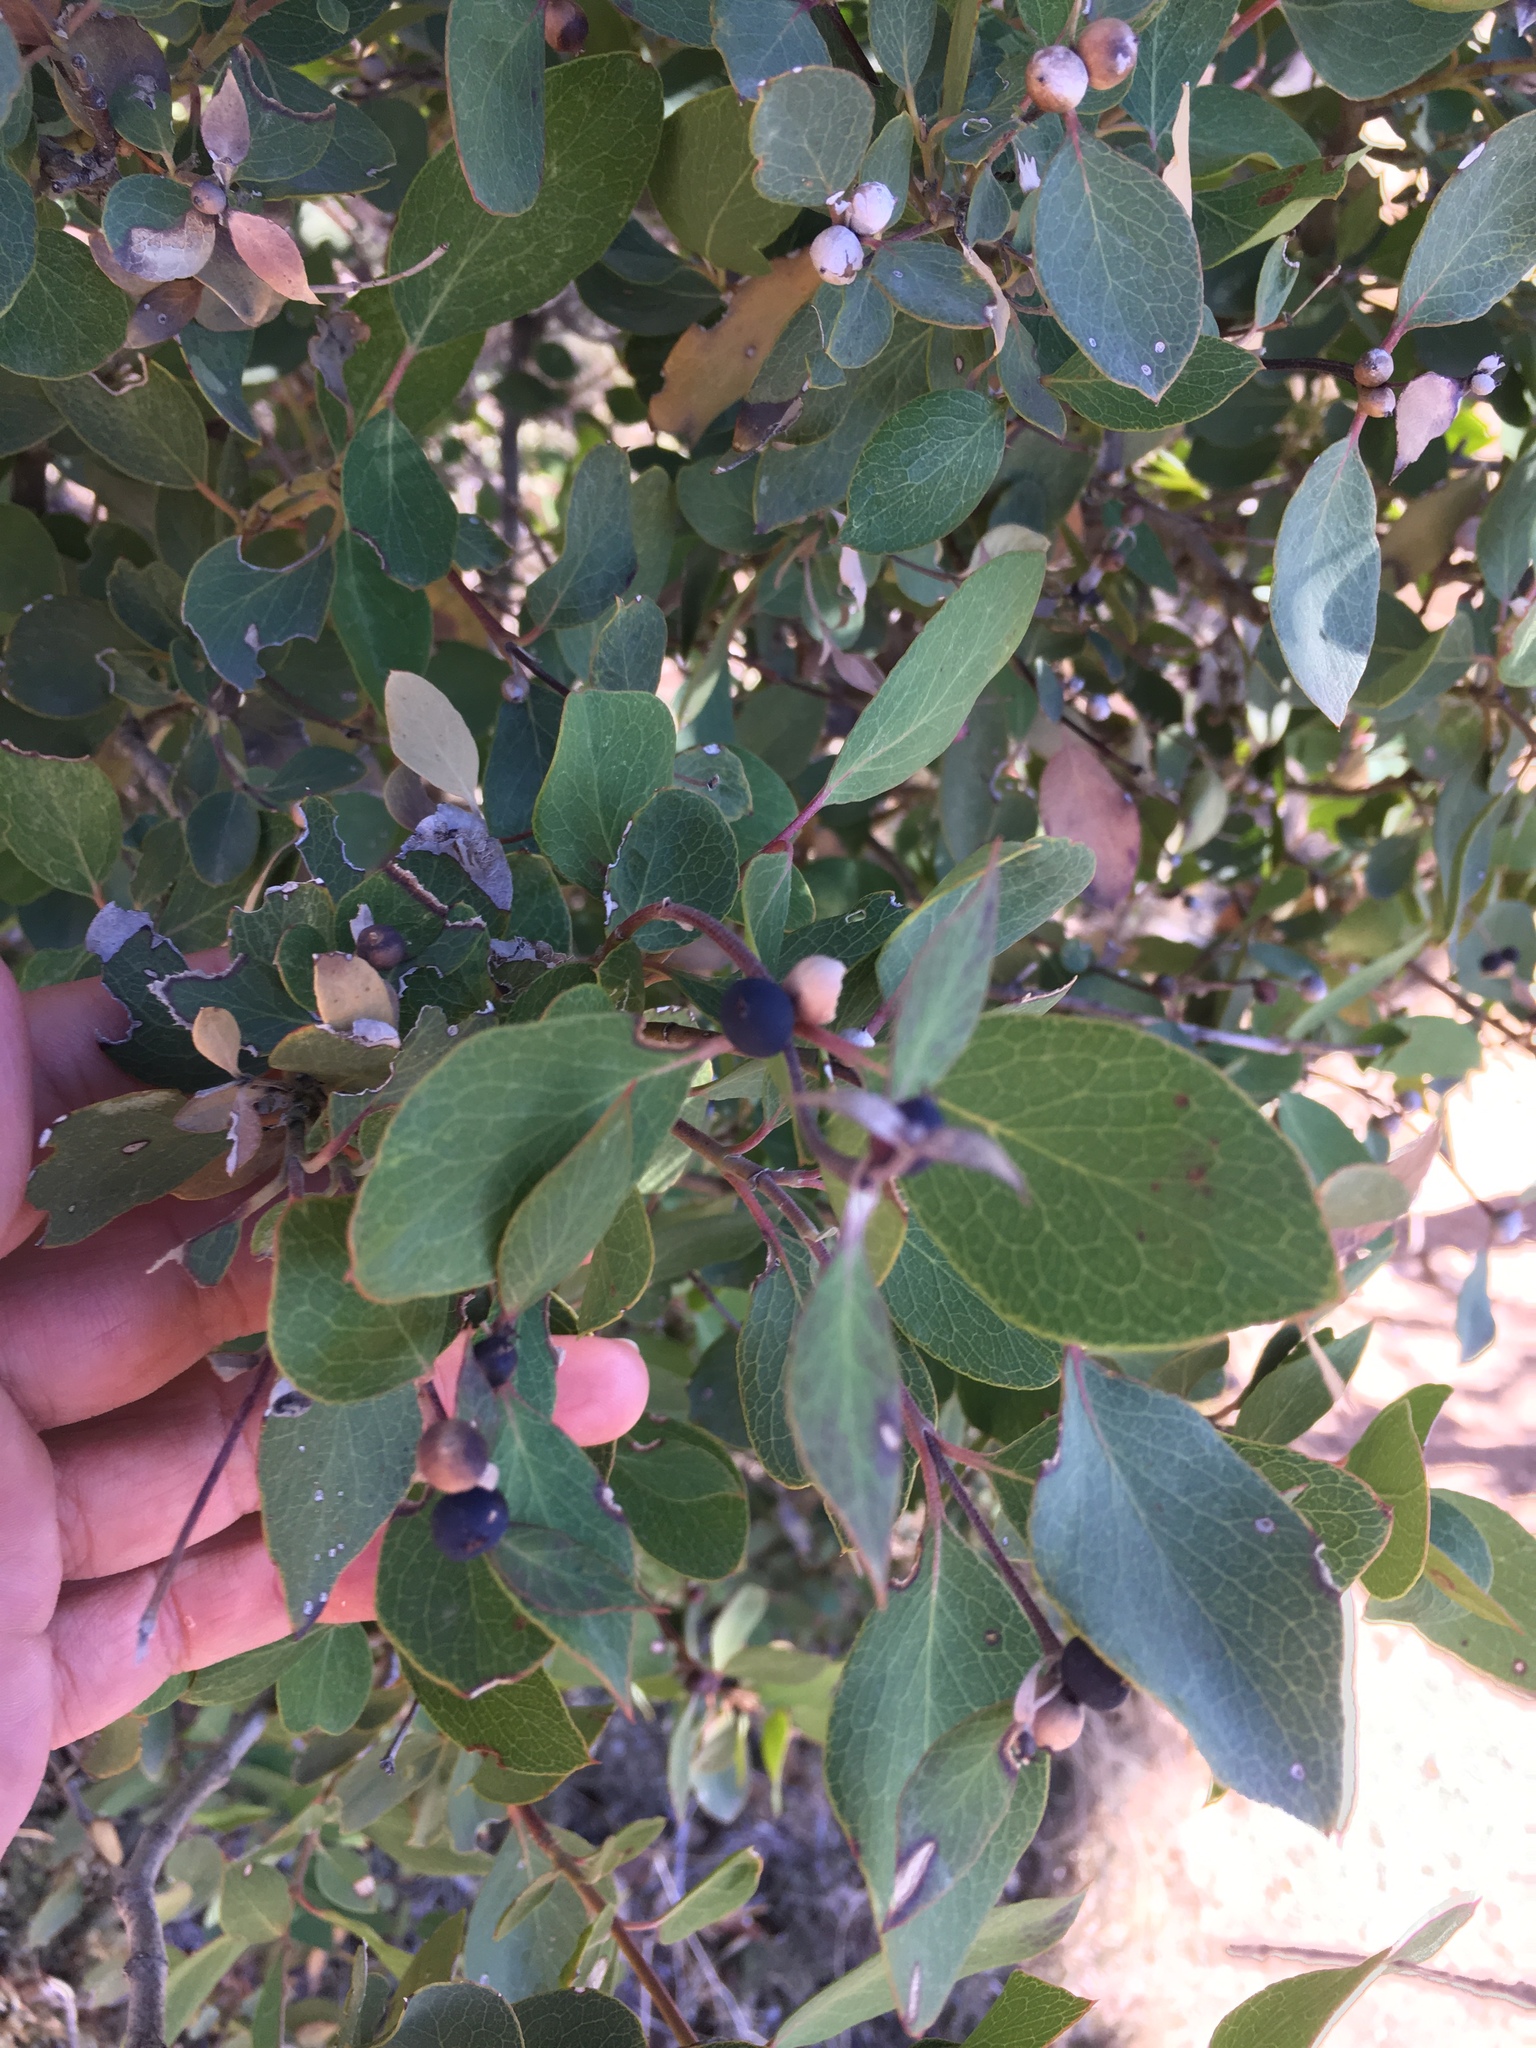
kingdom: Plantae
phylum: Tracheophyta
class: Magnoliopsida
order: Garryales
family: Garryaceae
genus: Garrya
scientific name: Garrya wrightii
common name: Wright's silktassel
